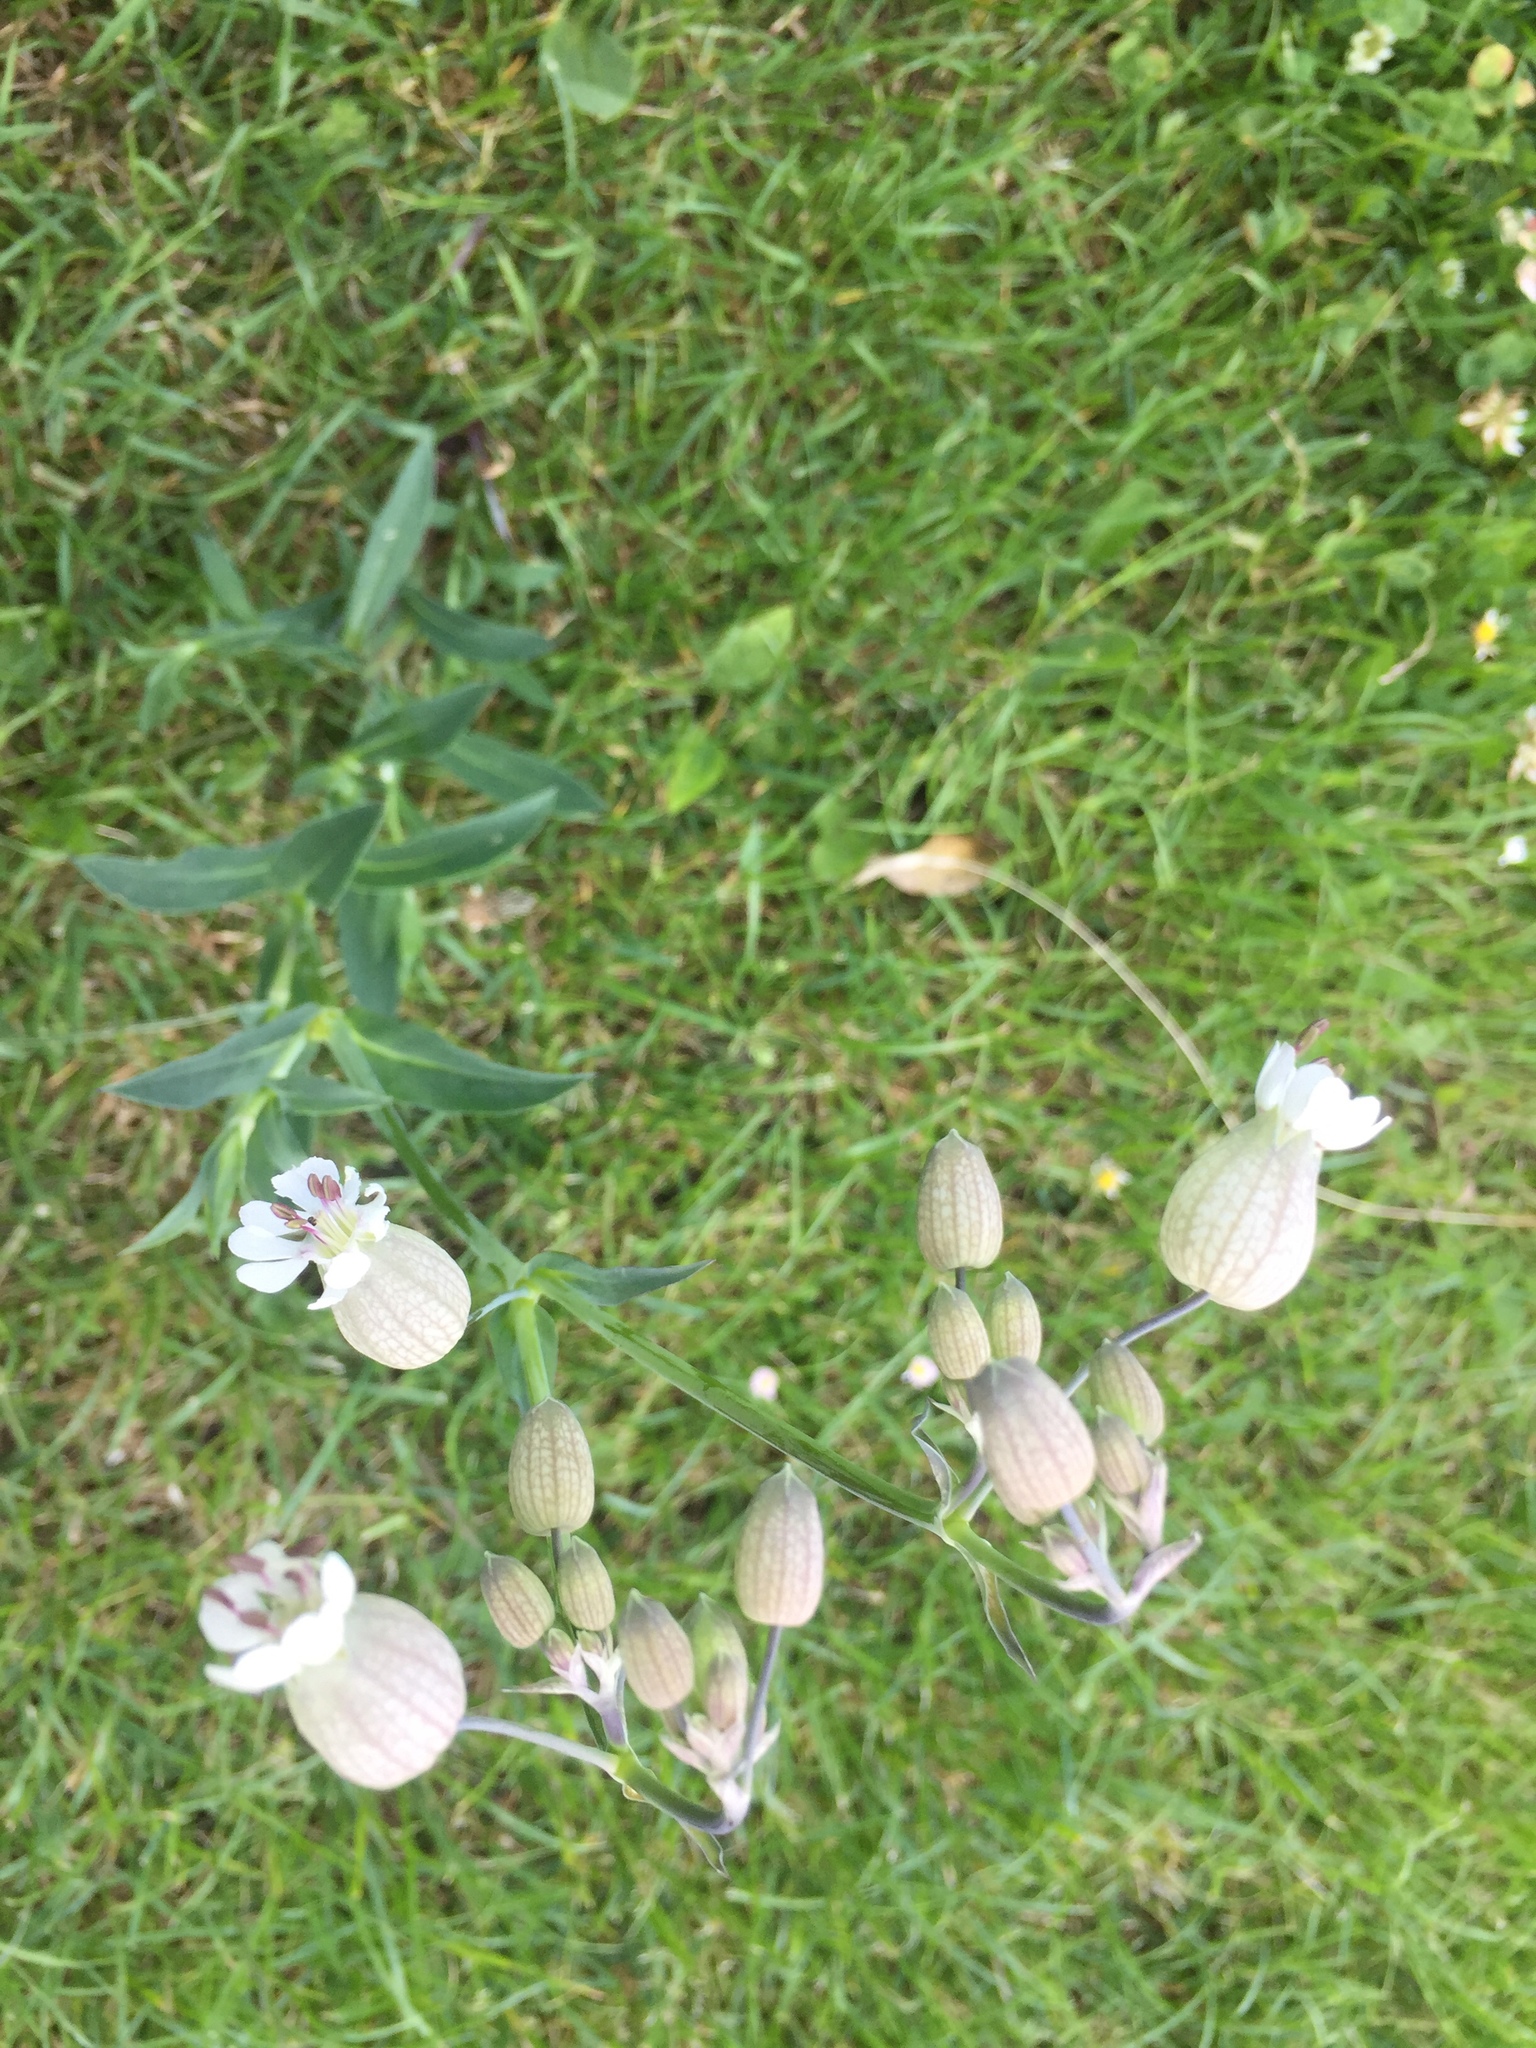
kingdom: Plantae
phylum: Tracheophyta
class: Magnoliopsida
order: Caryophyllales
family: Caryophyllaceae
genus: Silene
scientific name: Silene vulgaris
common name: Bladder campion
